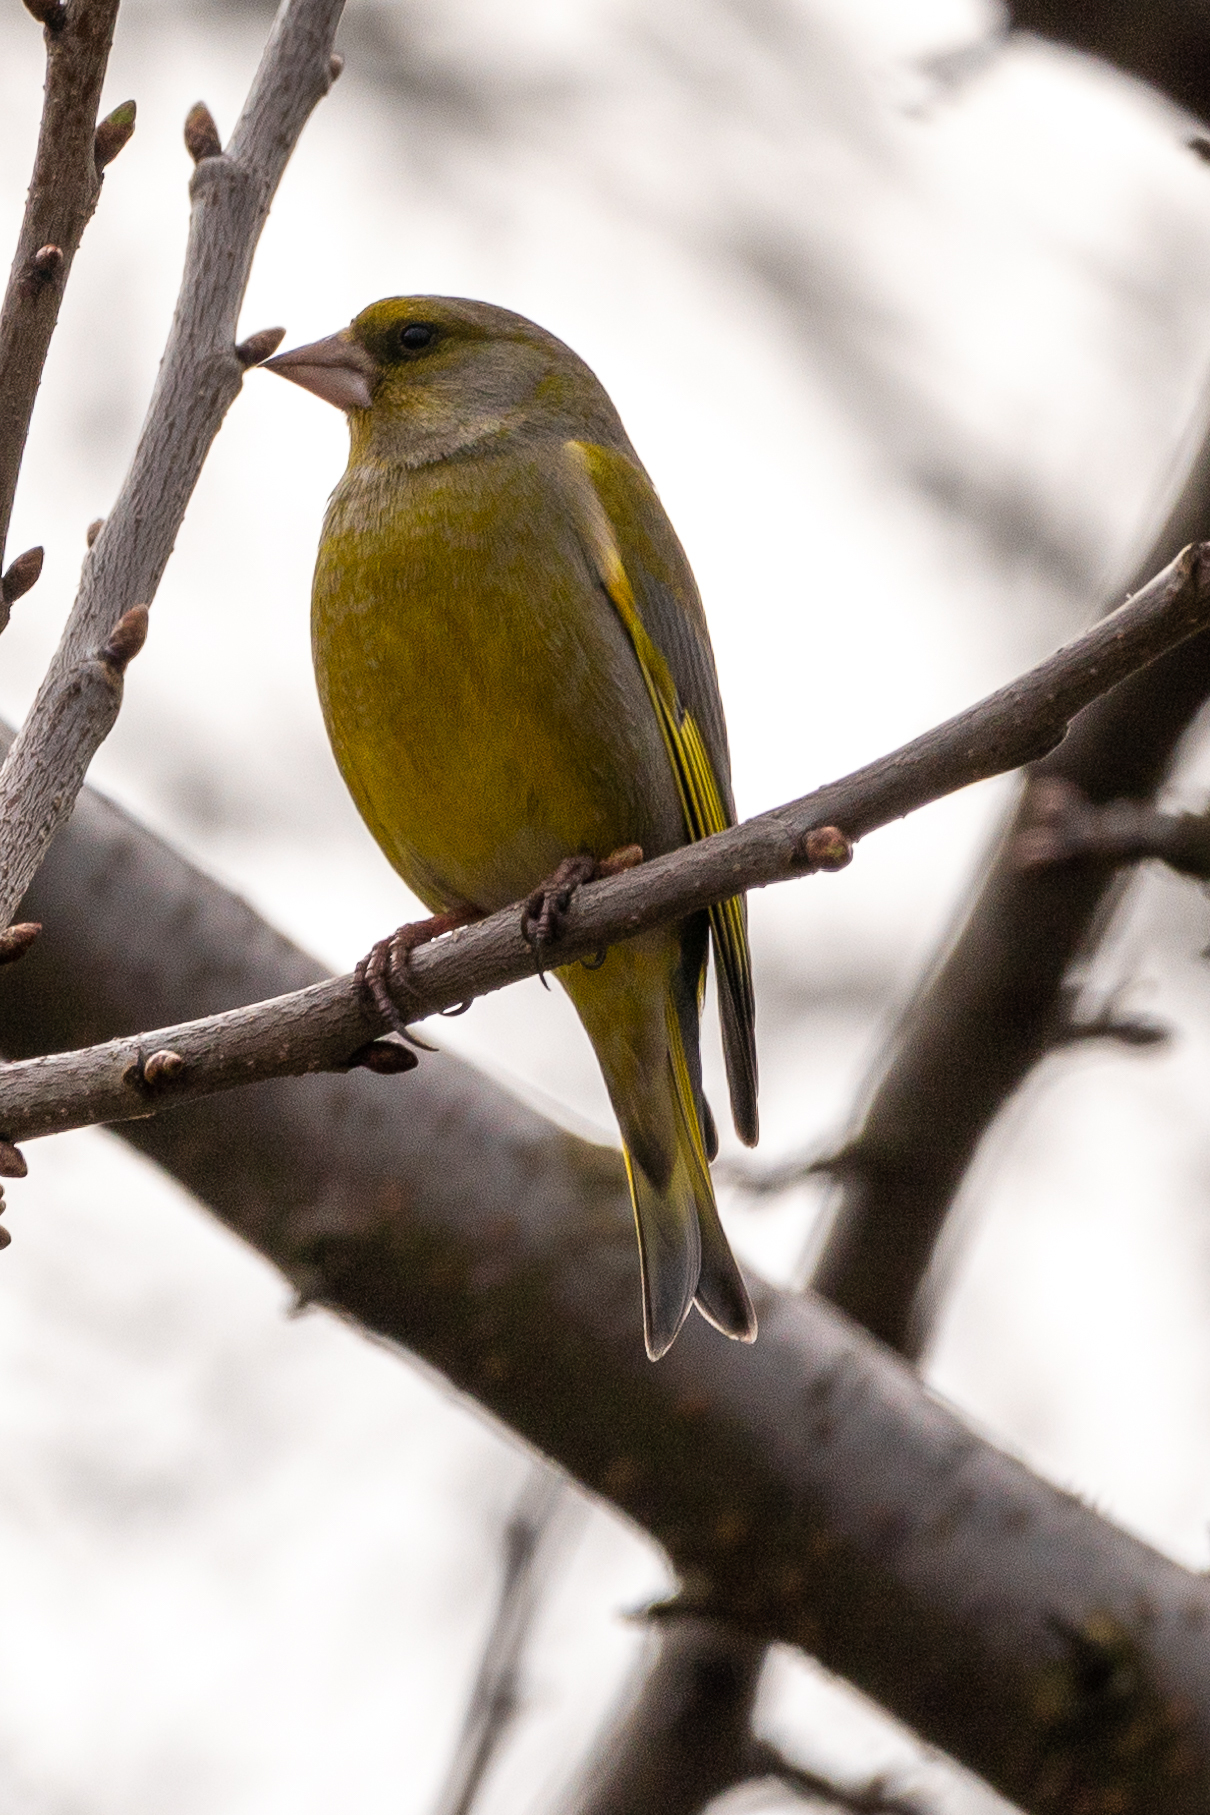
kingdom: Plantae
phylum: Tracheophyta
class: Liliopsida
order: Poales
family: Poaceae
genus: Chloris
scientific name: Chloris chloris
